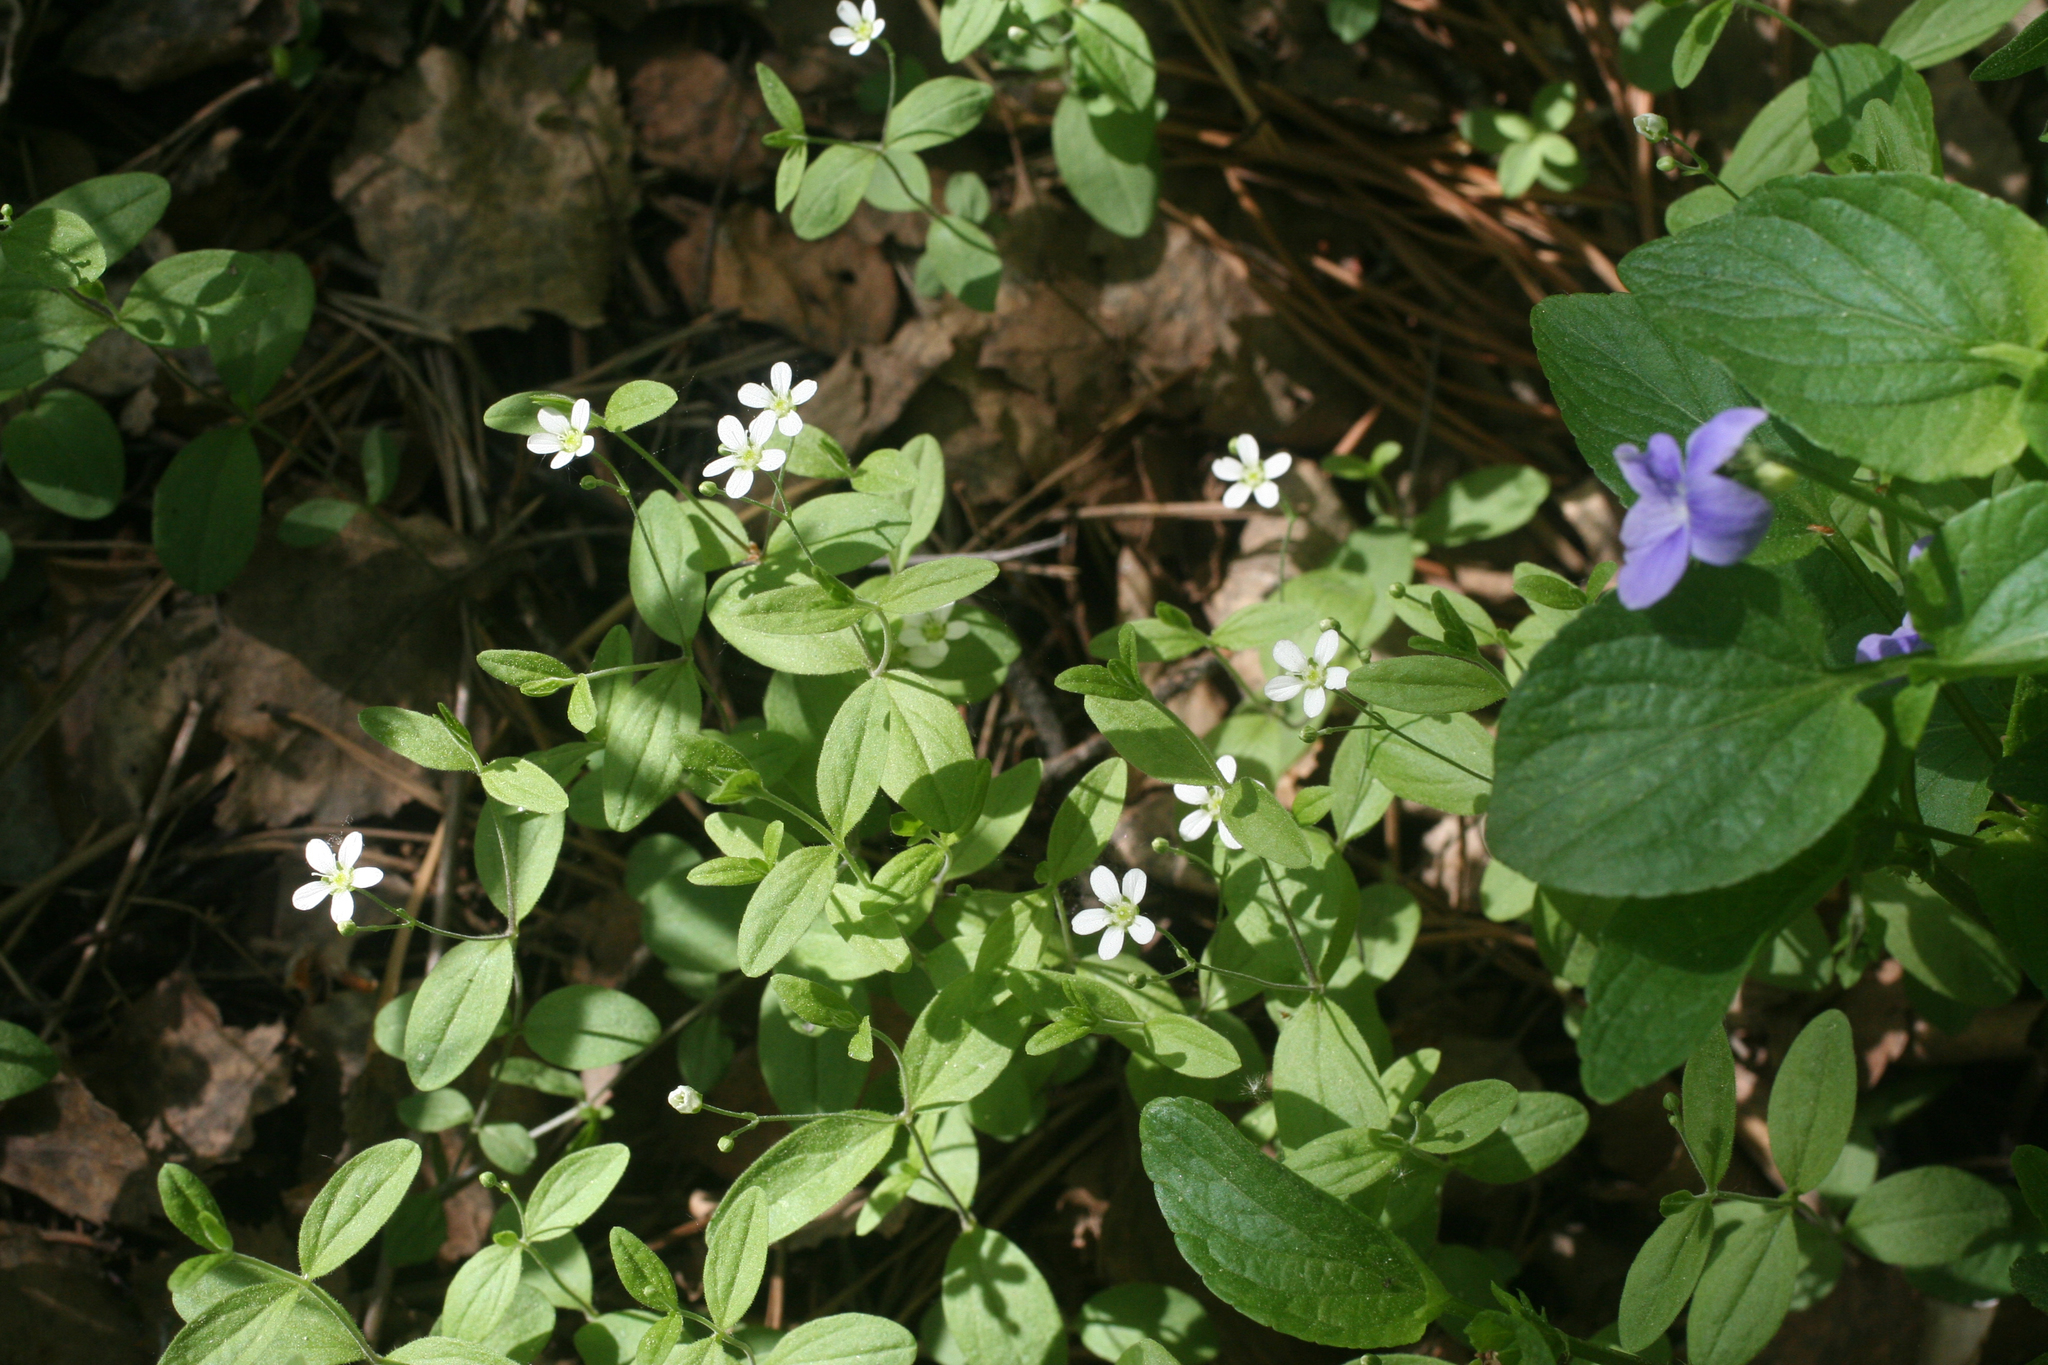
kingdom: Plantae
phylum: Tracheophyta
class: Magnoliopsida
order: Caryophyllales
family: Caryophyllaceae
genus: Moehringia
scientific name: Moehringia lateriflora
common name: Blunt-leaved sandwort
